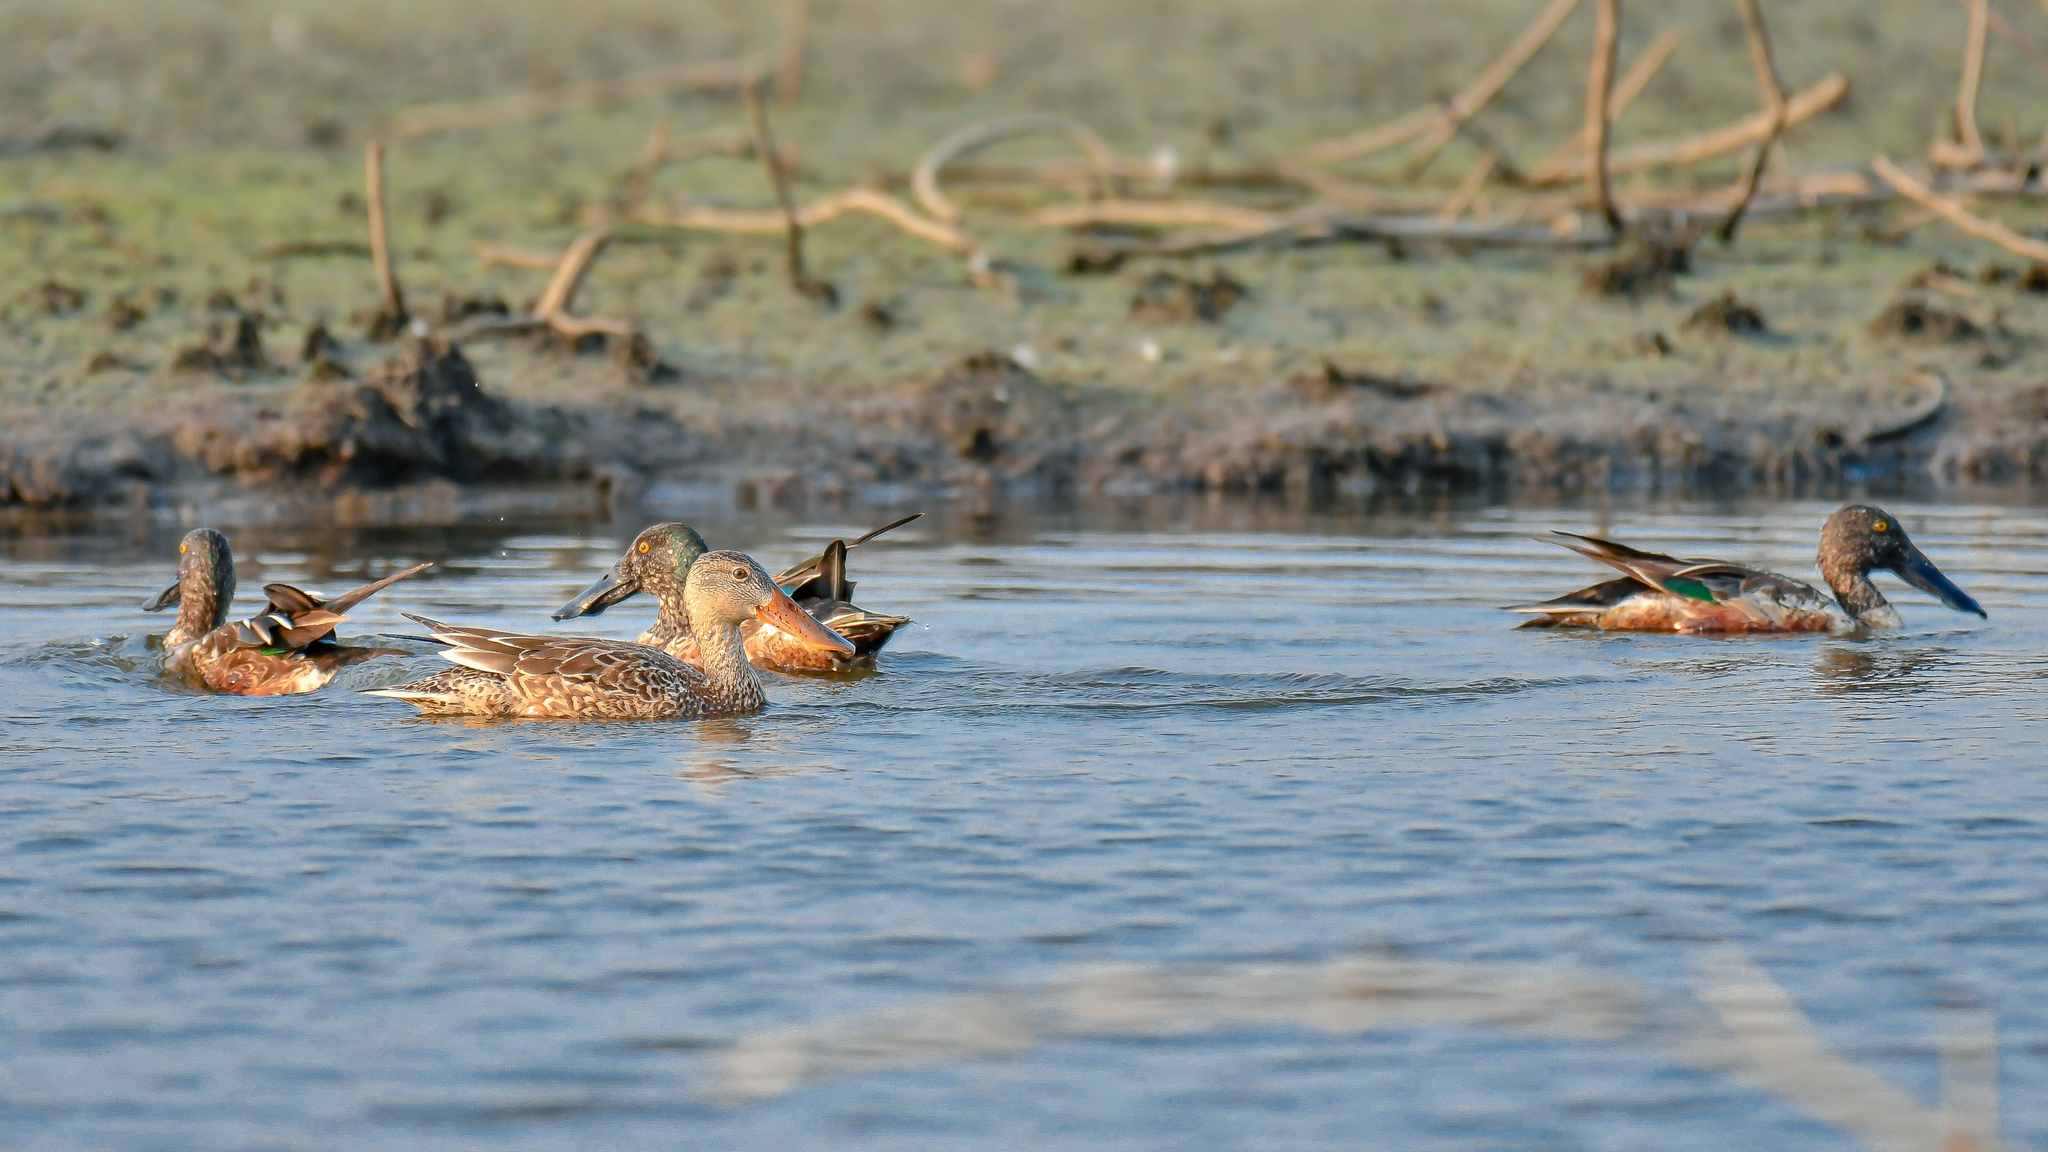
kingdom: Animalia
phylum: Chordata
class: Aves
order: Anseriformes
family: Anatidae
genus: Spatula
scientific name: Spatula clypeata
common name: Northern shoveler
